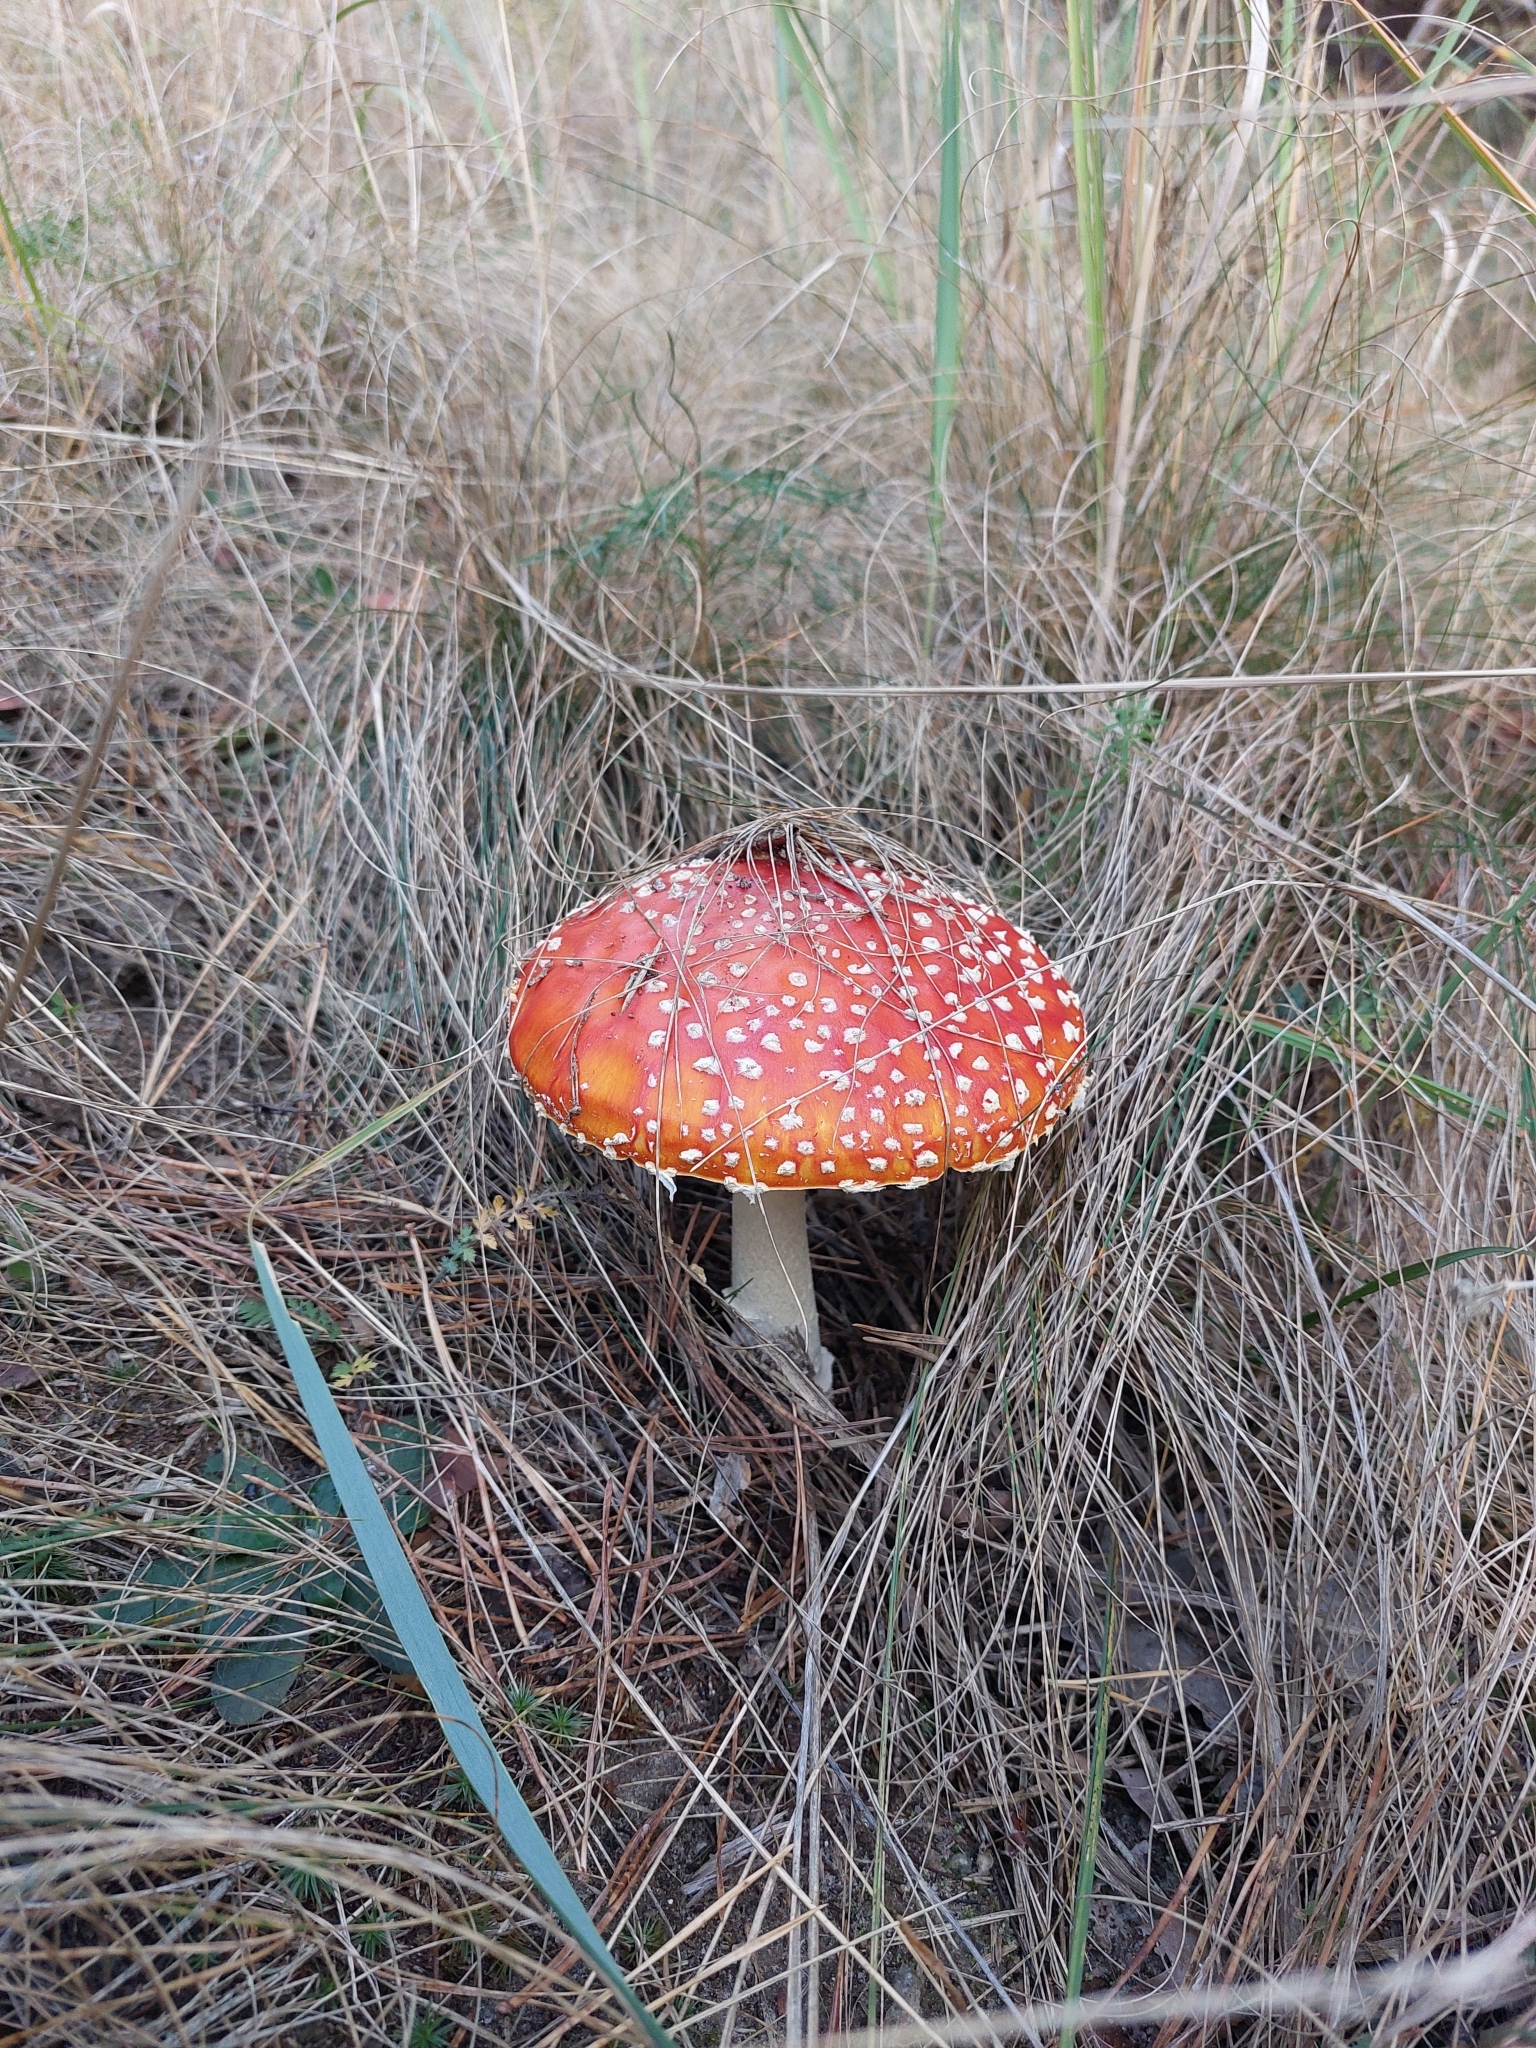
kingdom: Fungi
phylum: Basidiomycota
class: Agaricomycetes
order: Agaricales
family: Amanitaceae
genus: Amanita
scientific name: Amanita muscaria
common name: Fly agaric
